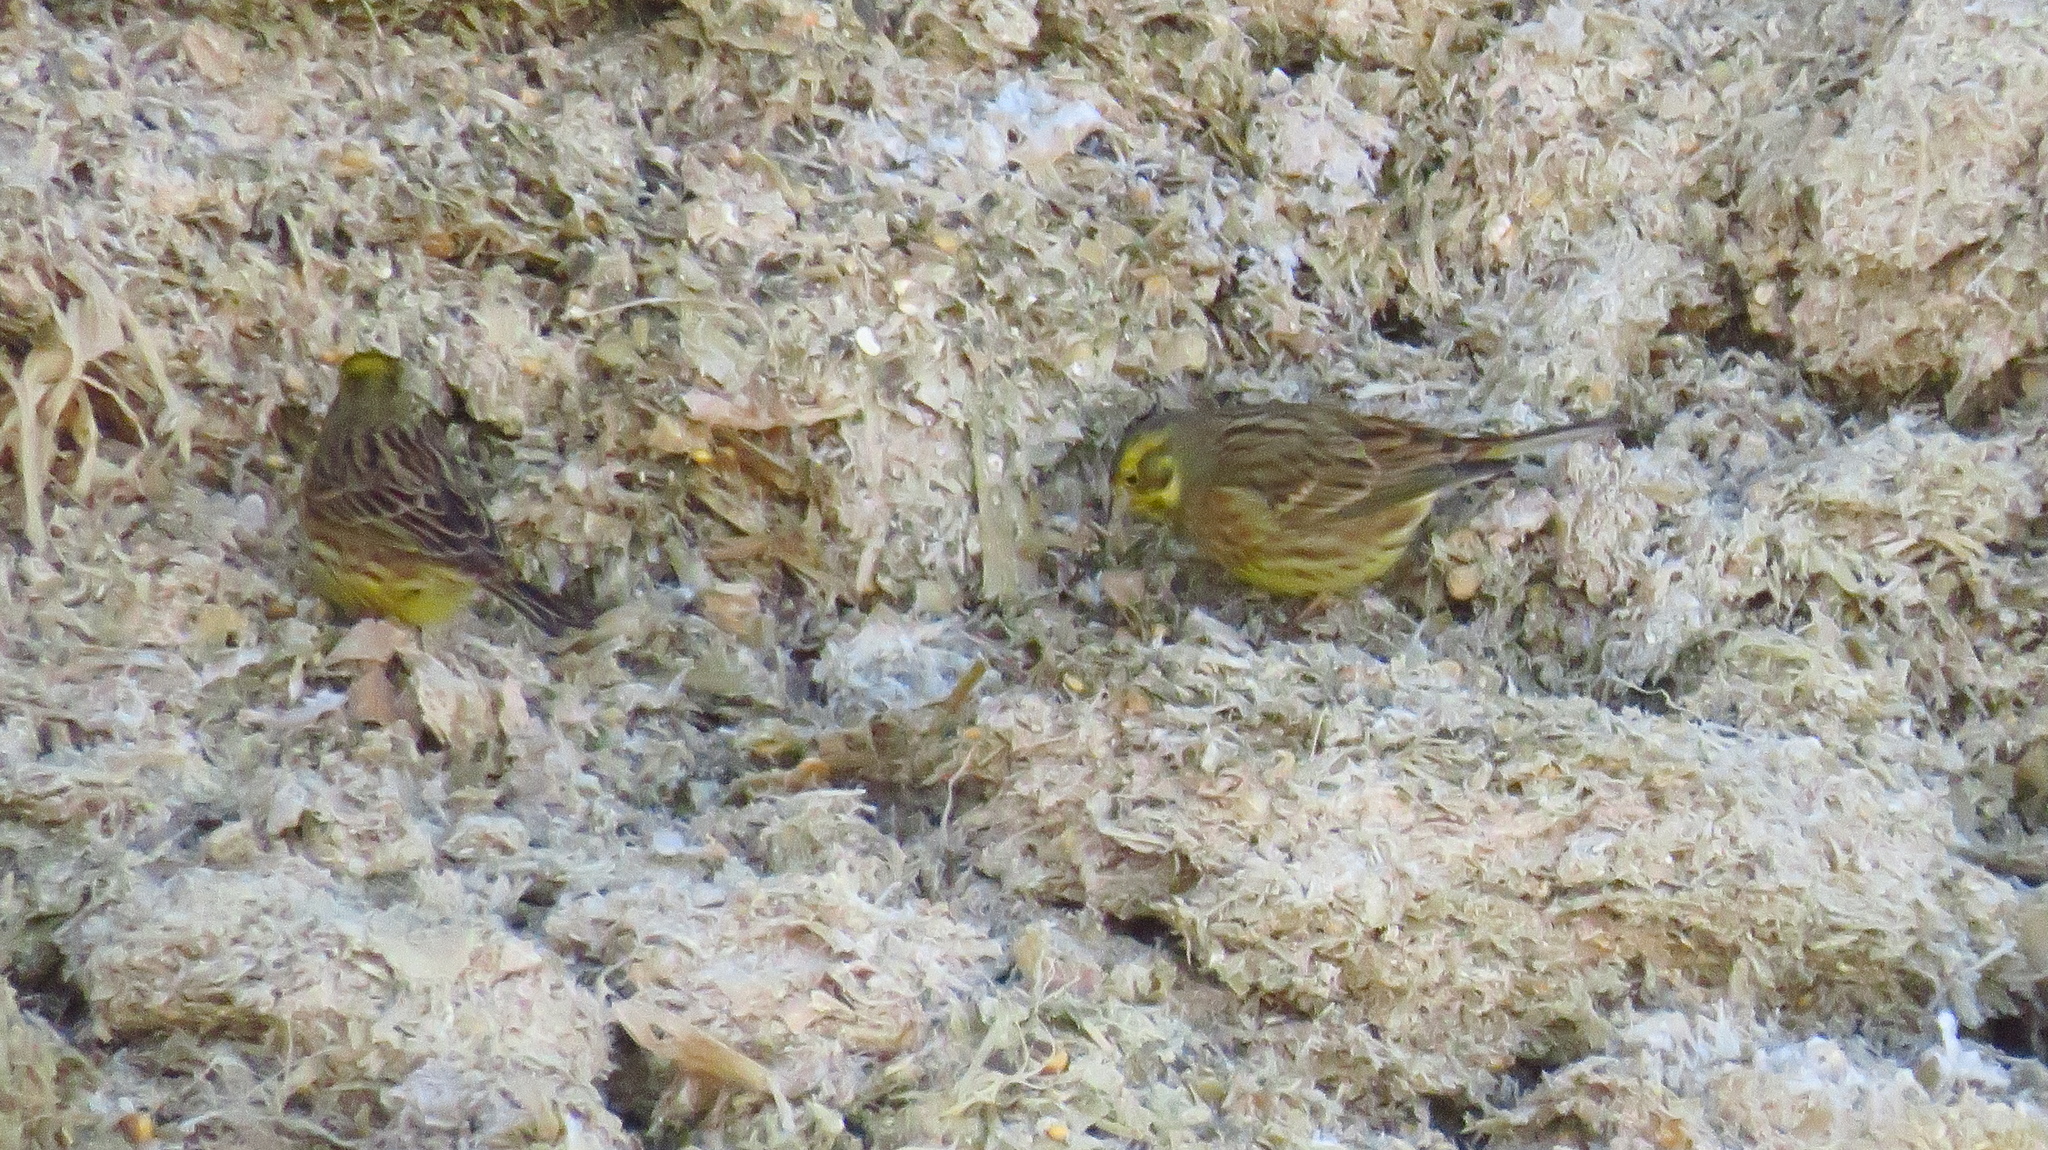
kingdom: Animalia
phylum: Chordata
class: Aves
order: Passeriformes
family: Emberizidae
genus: Emberiza
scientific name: Emberiza citrinella
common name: Yellowhammer
